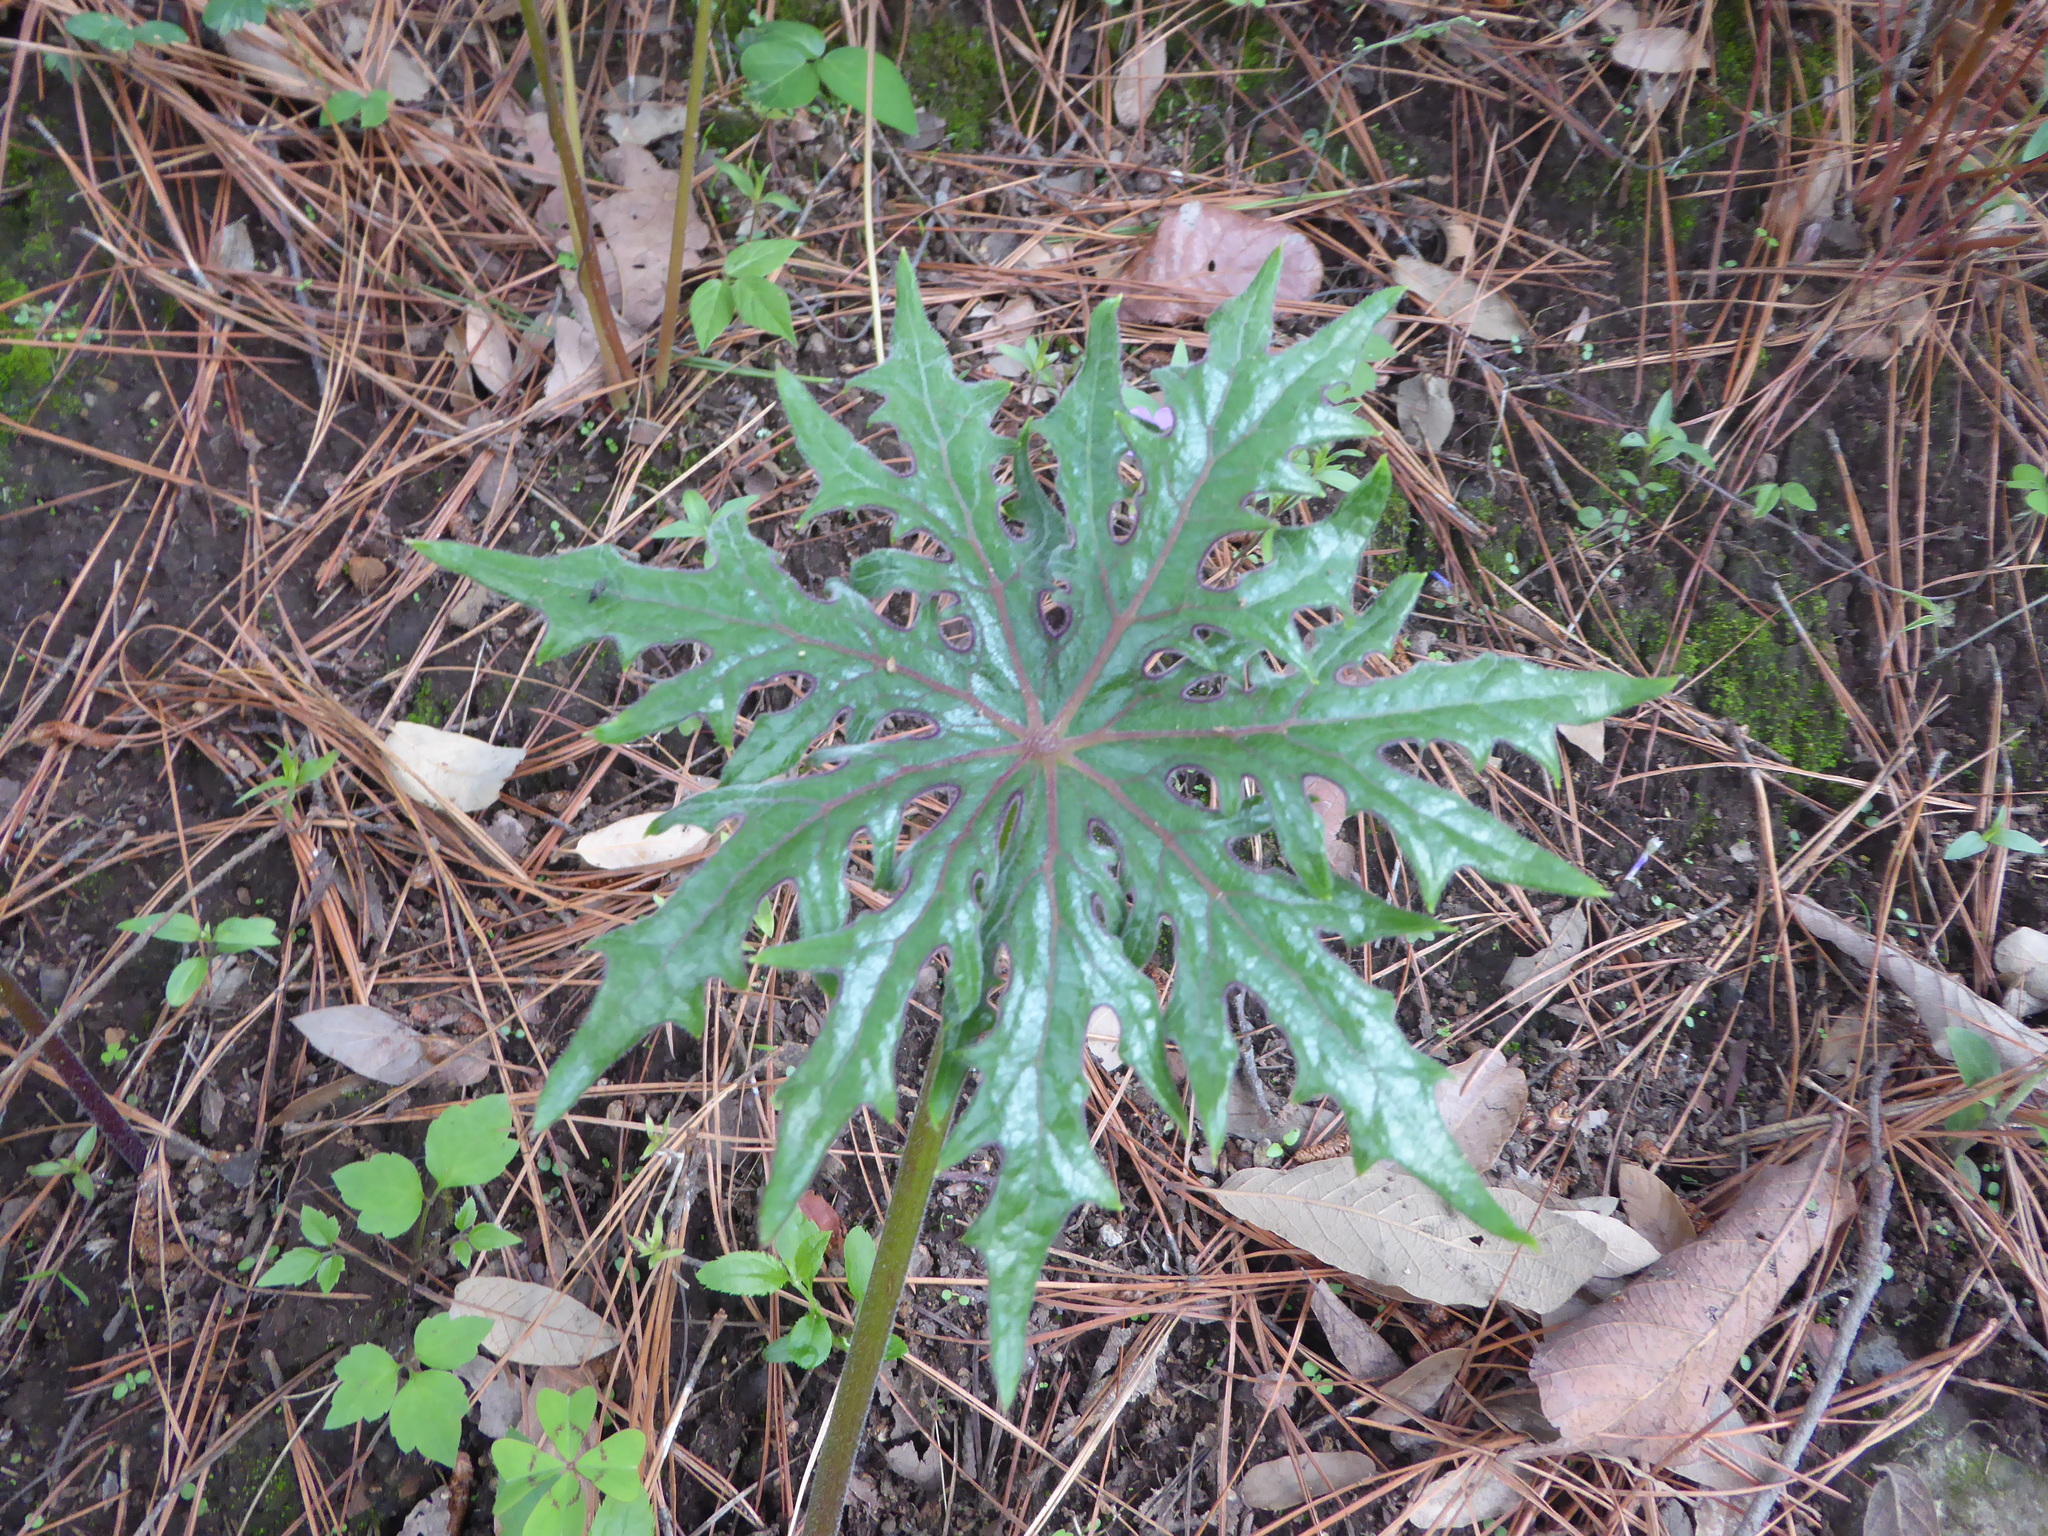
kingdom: Plantae
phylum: Tracheophyta
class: Magnoliopsida
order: Asterales
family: Asteraceae
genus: Psacalium
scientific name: Psacalium peltatum
